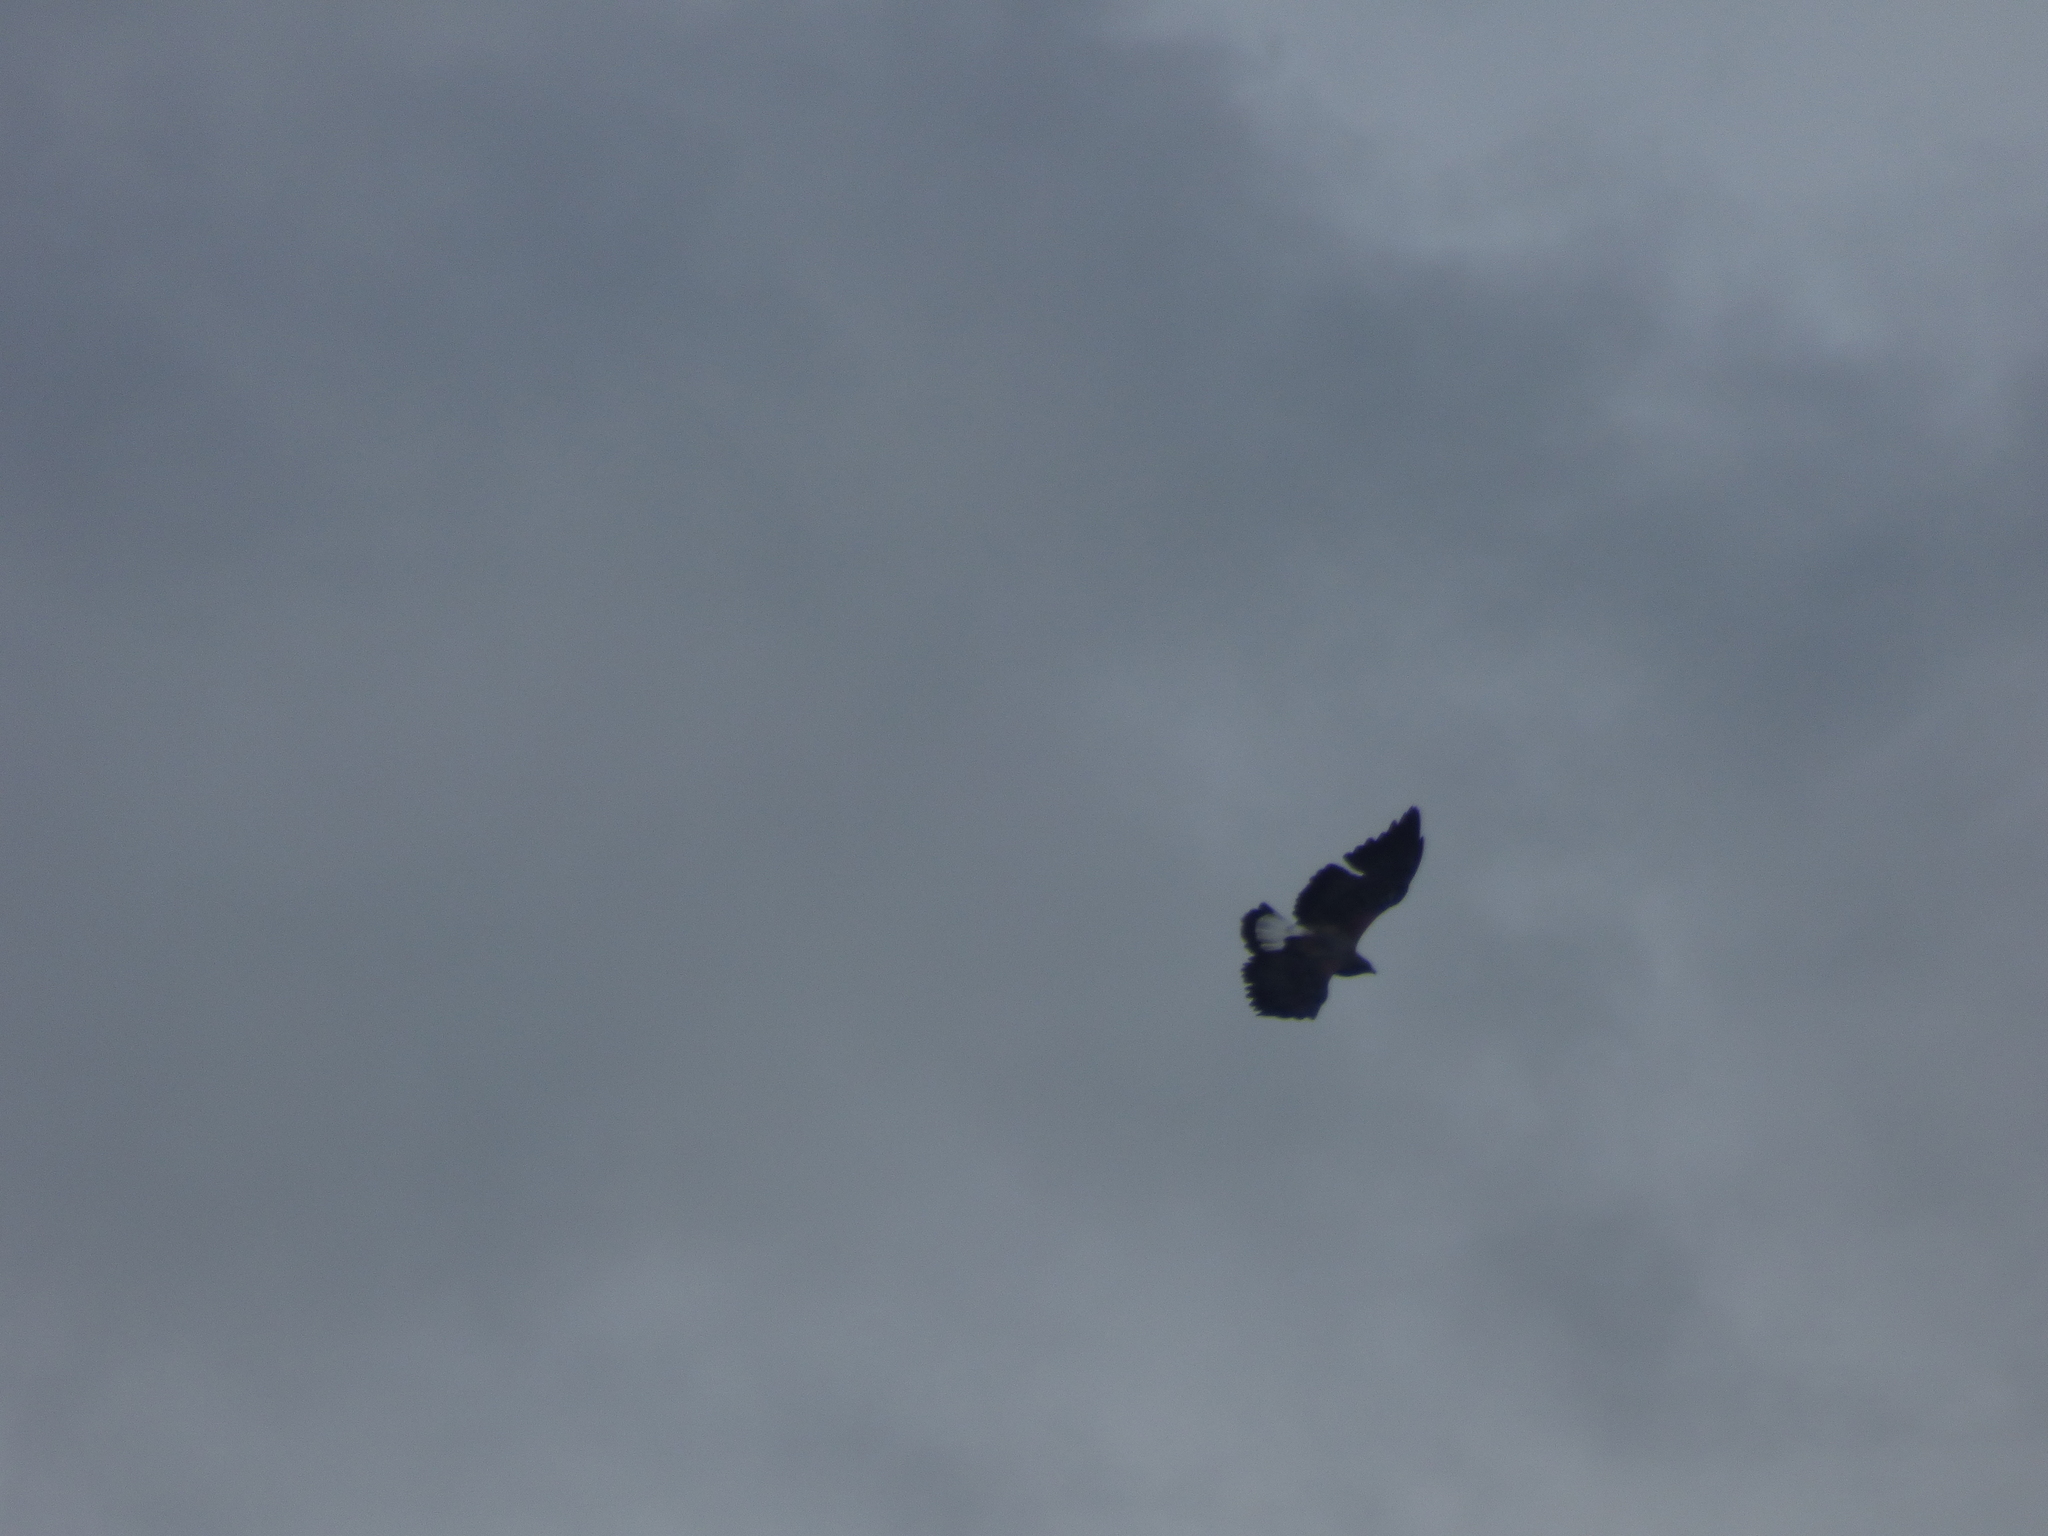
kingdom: Animalia
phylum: Chordata
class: Aves
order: Accipitriformes
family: Accipitridae
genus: Buteo
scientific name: Buteo albicaudatus
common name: White-tailed hawk
